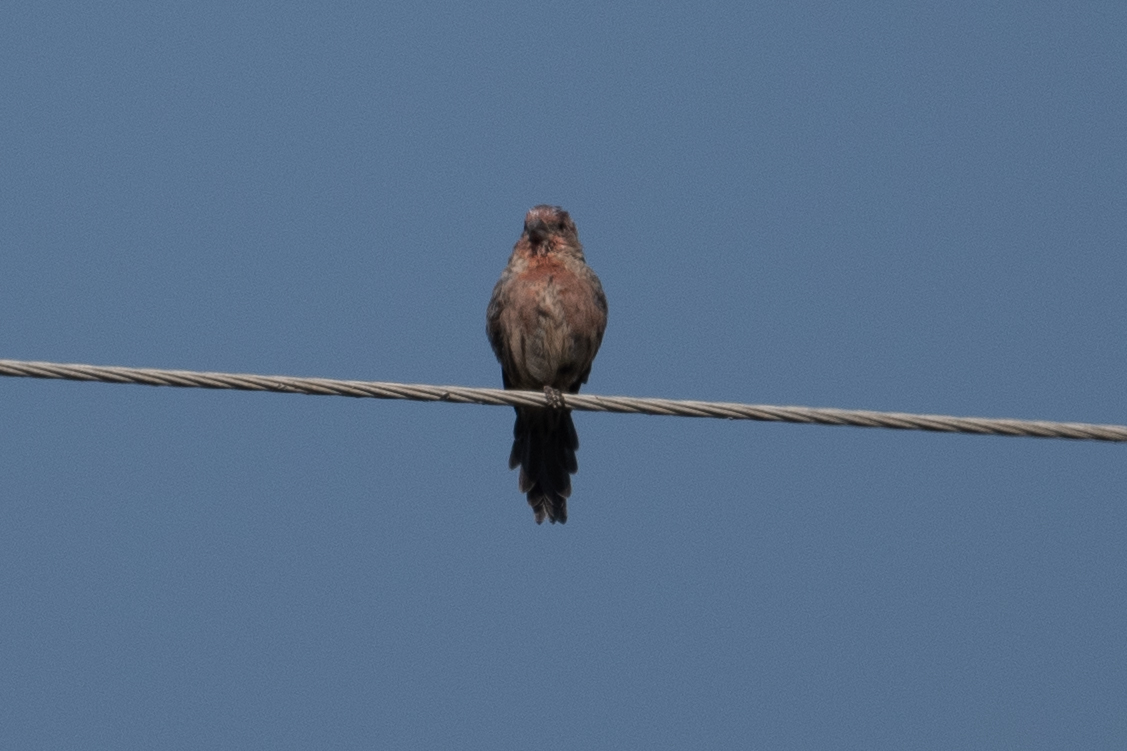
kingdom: Animalia
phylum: Chordata
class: Aves
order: Passeriformes
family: Fringillidae
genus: Haemorhous
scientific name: Haemorhous mexicanus
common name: House finch
